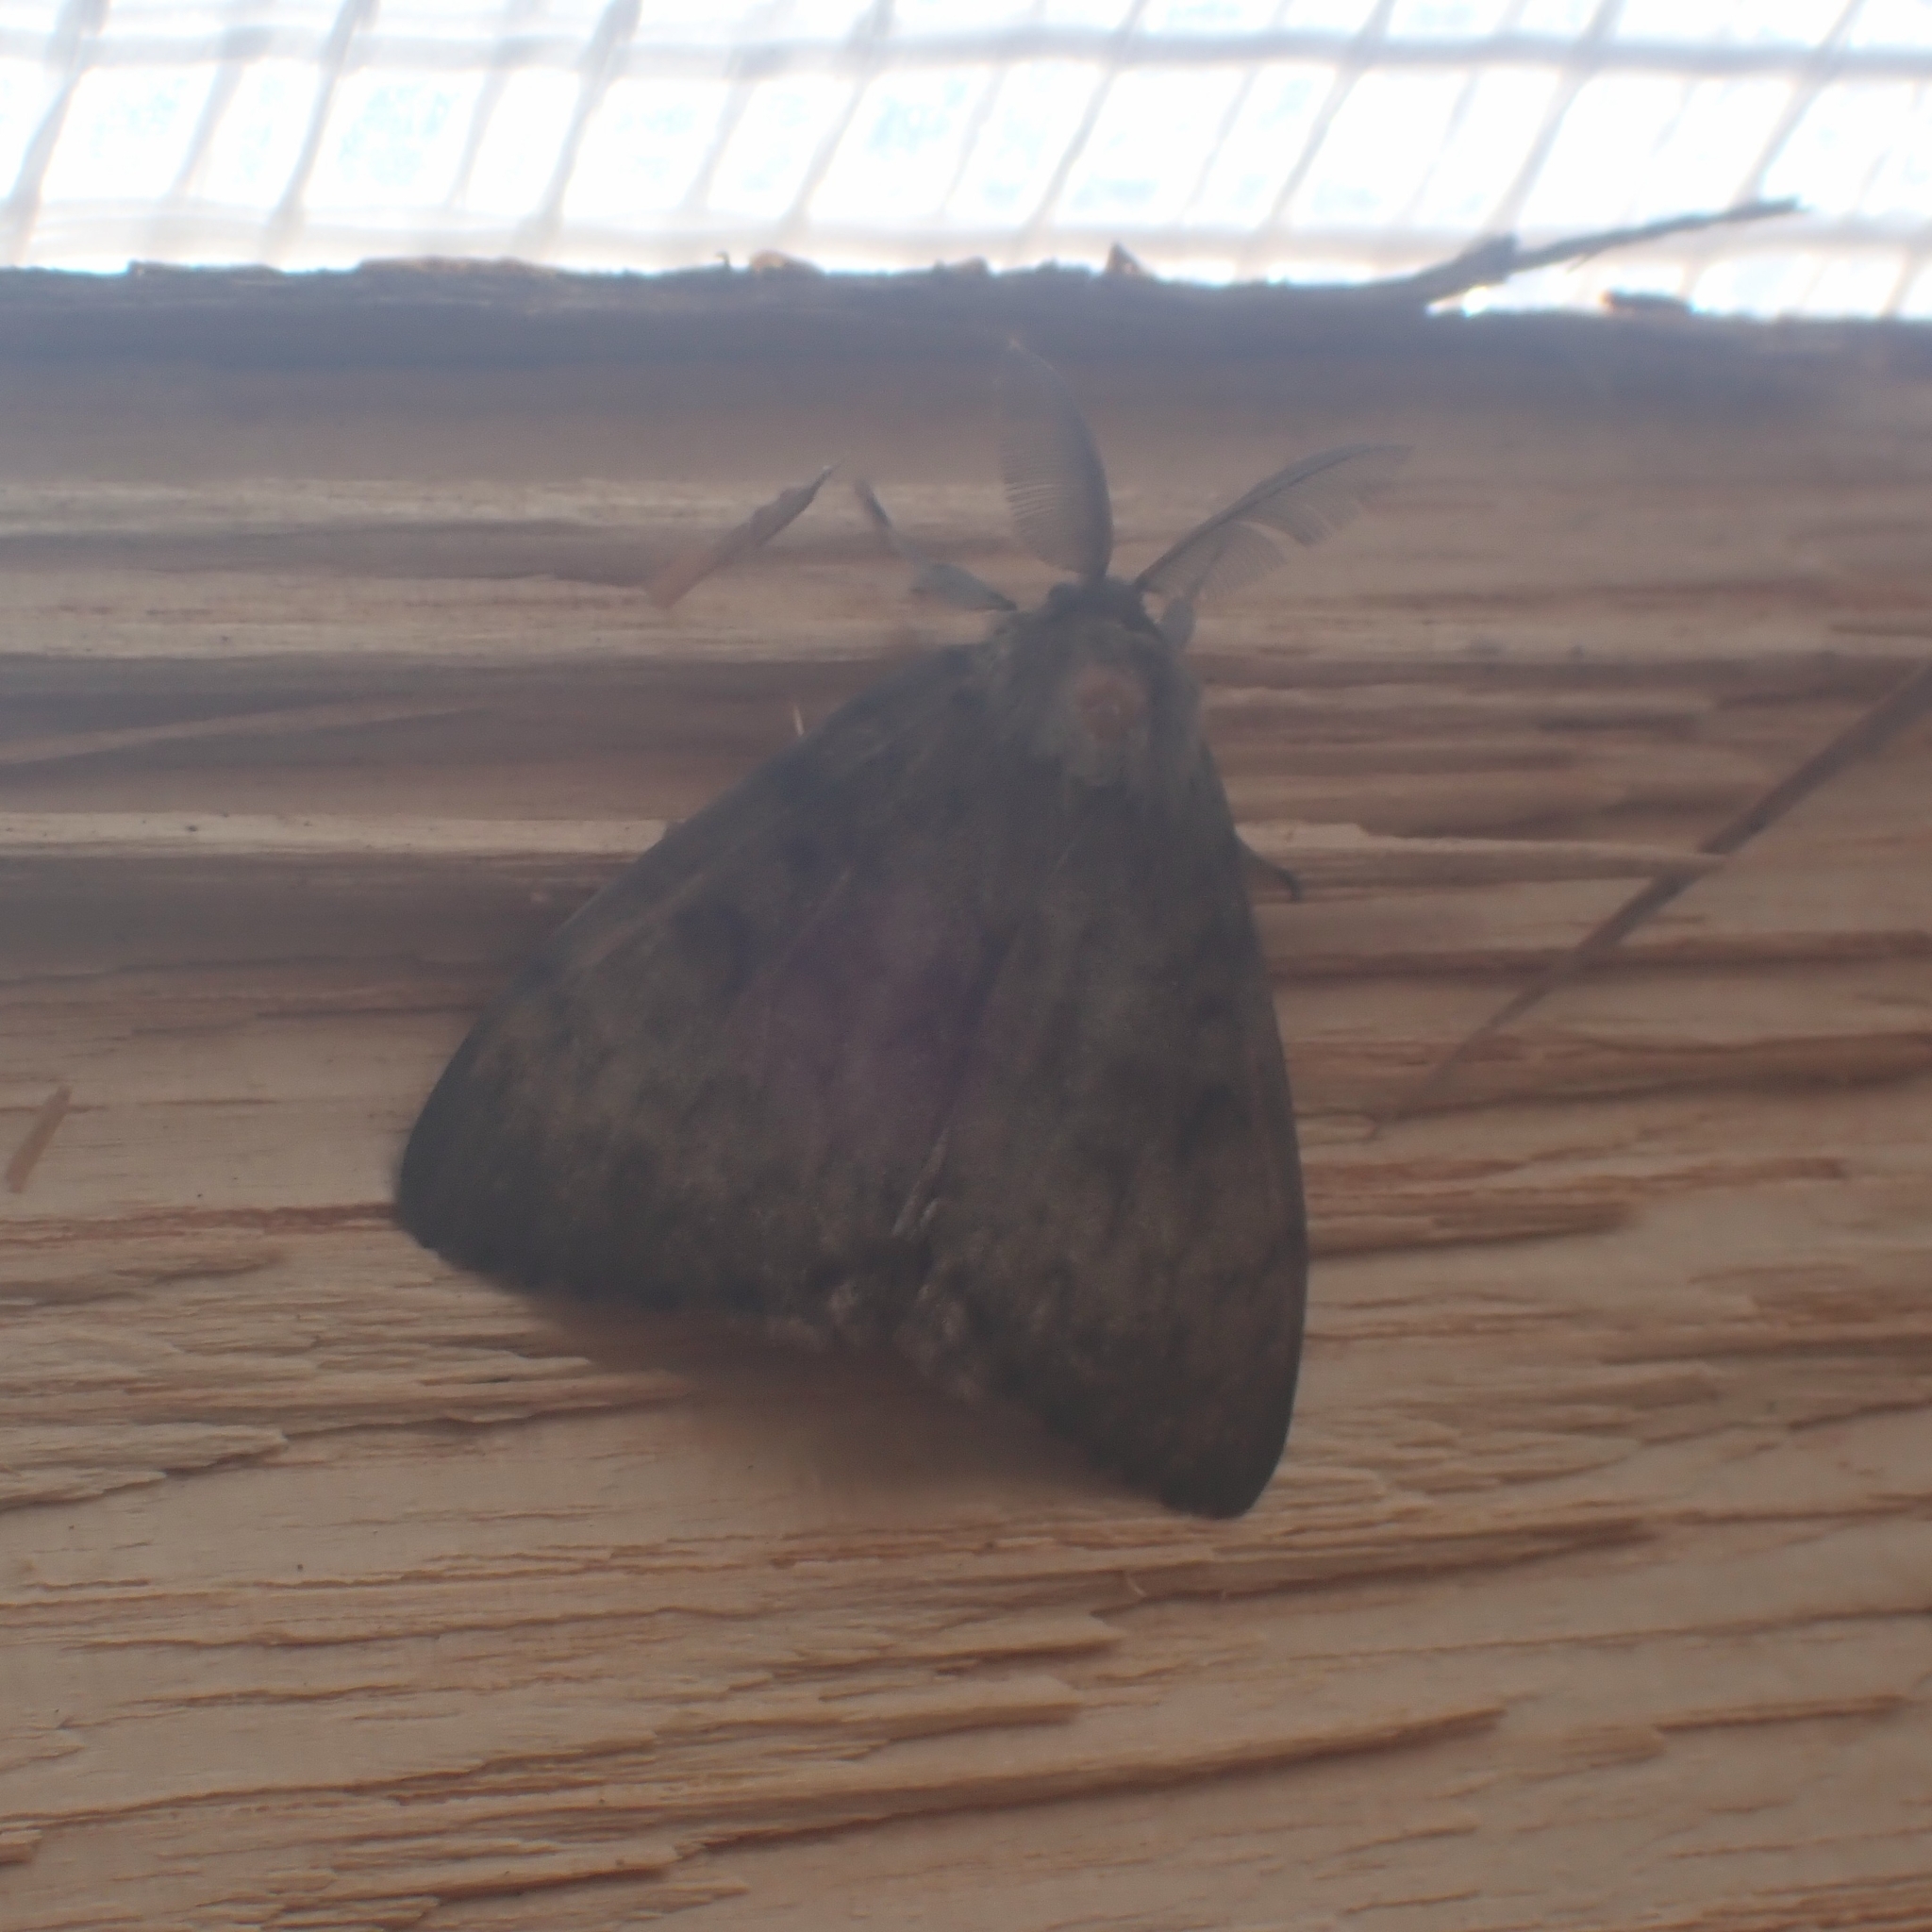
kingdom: Animalia
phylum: Arthropoda
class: Insecta
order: Lepidoptera
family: Erebidae
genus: Lymantria
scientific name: Lymantria dispar
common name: Gypsy moth
